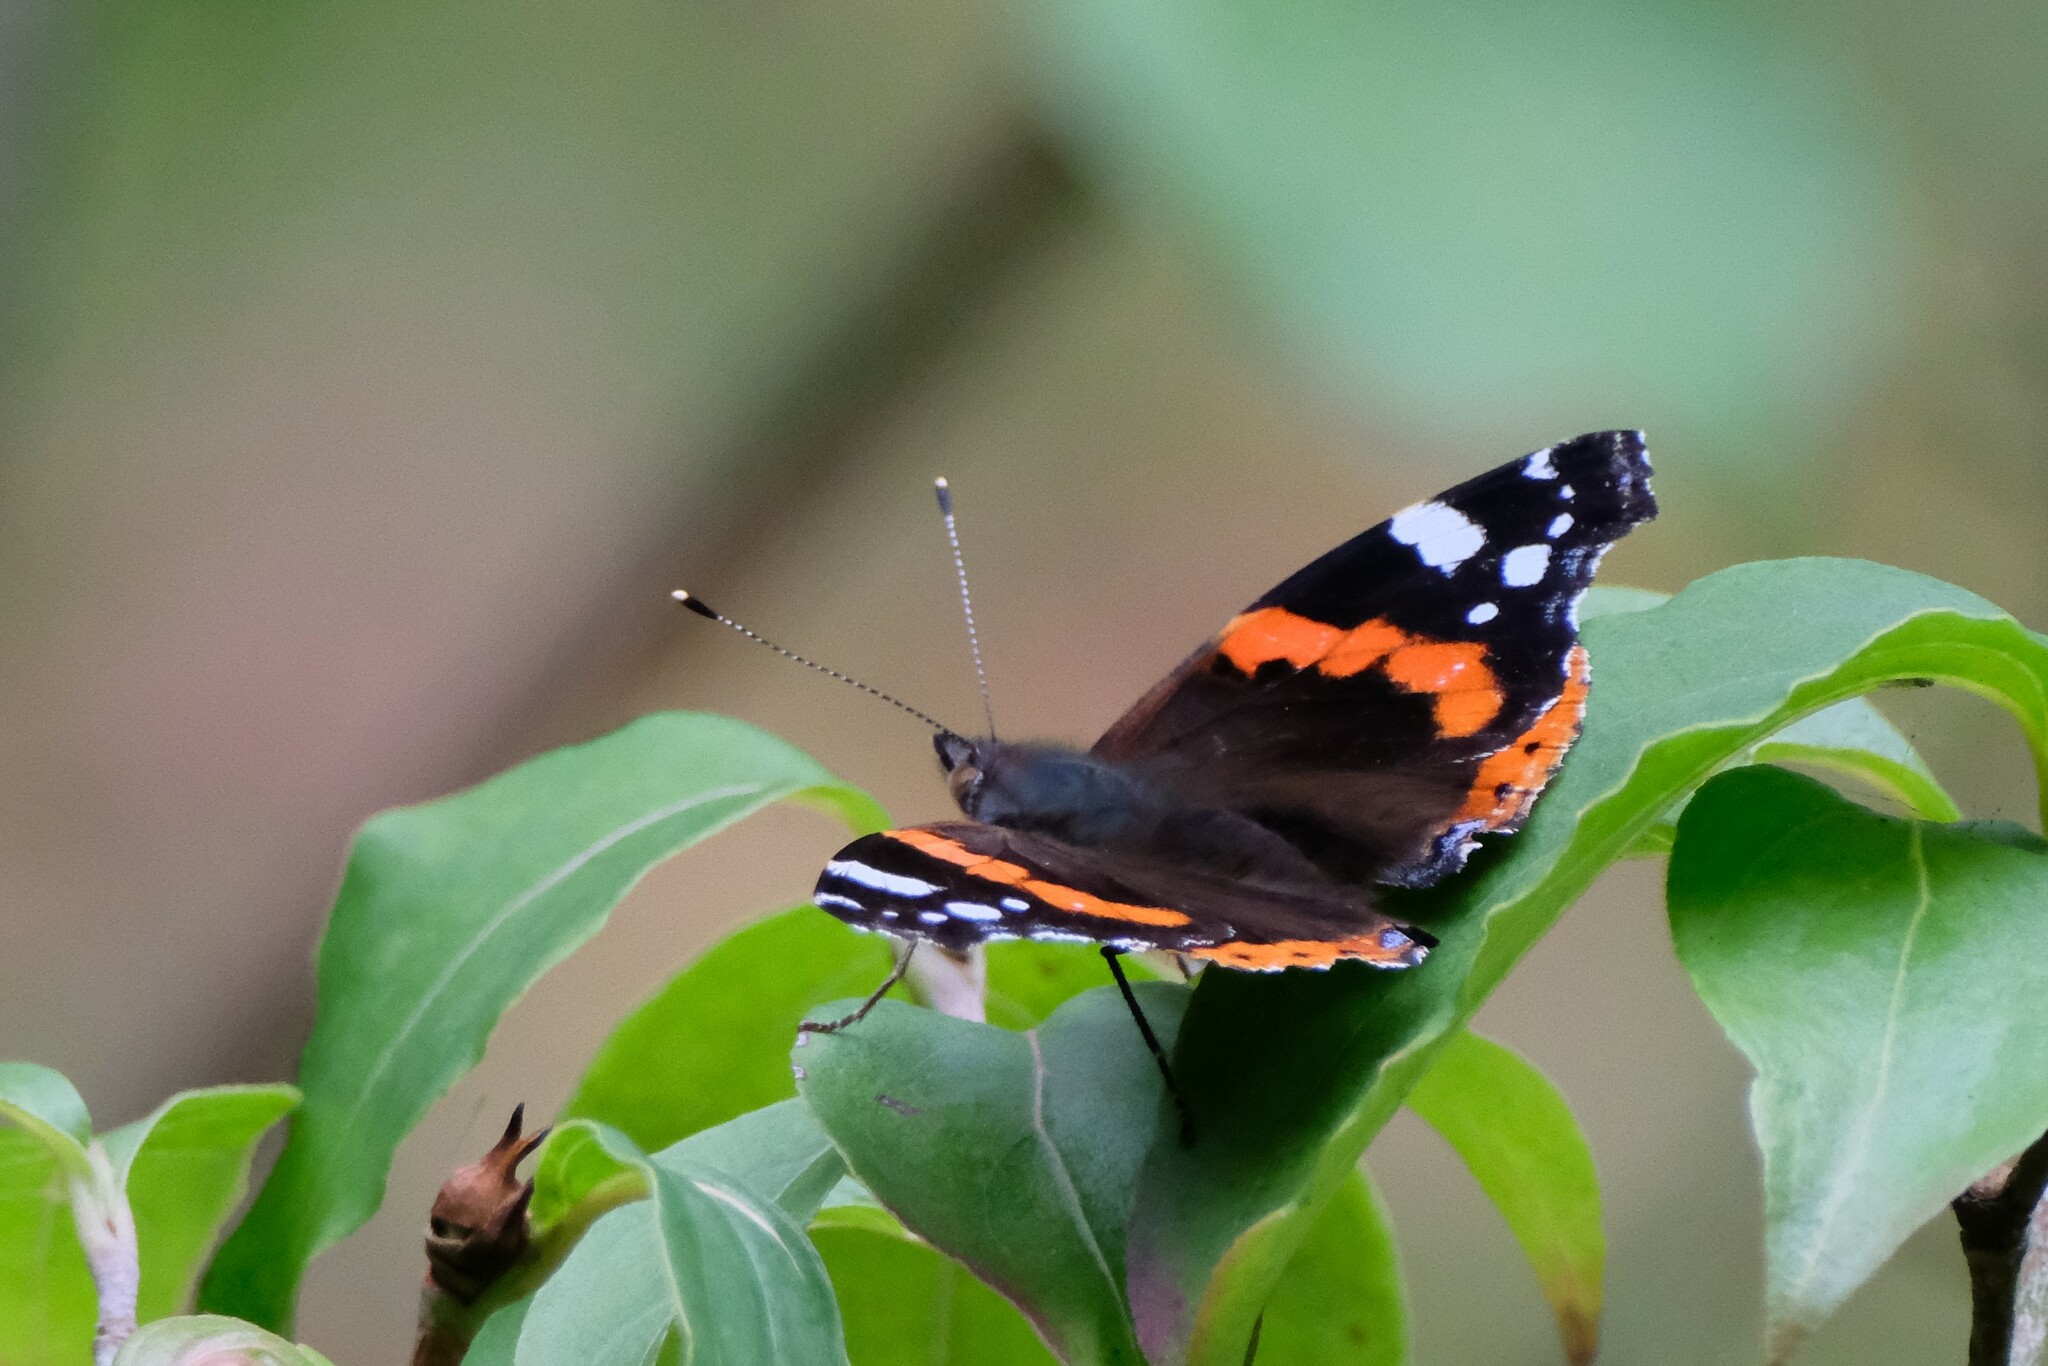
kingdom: Animalia
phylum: Arthropoda
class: Insecta
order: Lepidoptera
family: Nymphalidae
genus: Vanessa
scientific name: Vanessa atalanta
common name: Red admiral
